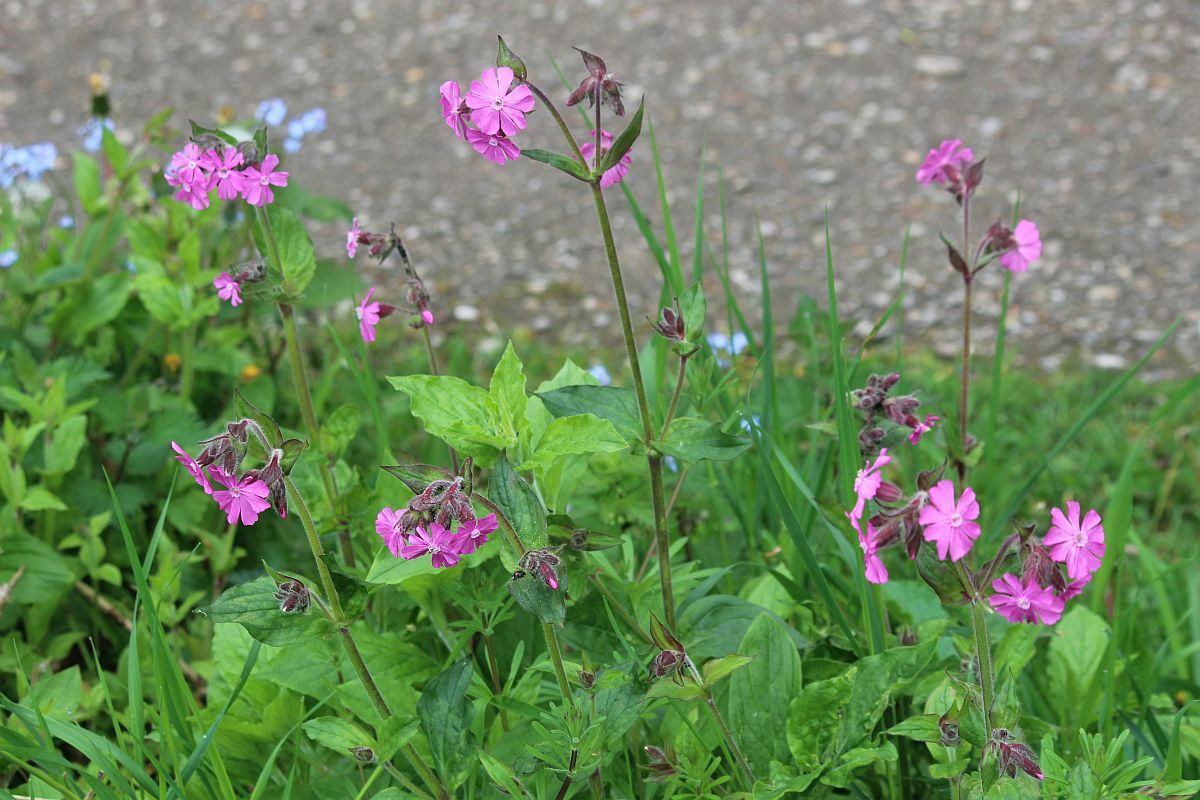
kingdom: Plantae
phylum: Tracheophyta
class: Magnoliopsida
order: Caryophyllales
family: Caryophyllaceae
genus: Silene
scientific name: Silene dioica
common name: Red campion
